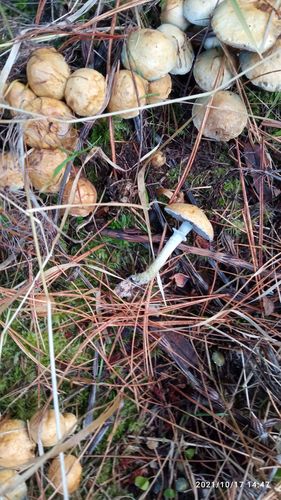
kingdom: Fungi
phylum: Basidiomycota
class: Agaricomycetes
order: Agaricales
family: Strophariaceae
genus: Stropharia
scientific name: Stropharia aeruginosa
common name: Verdigris roundhead
